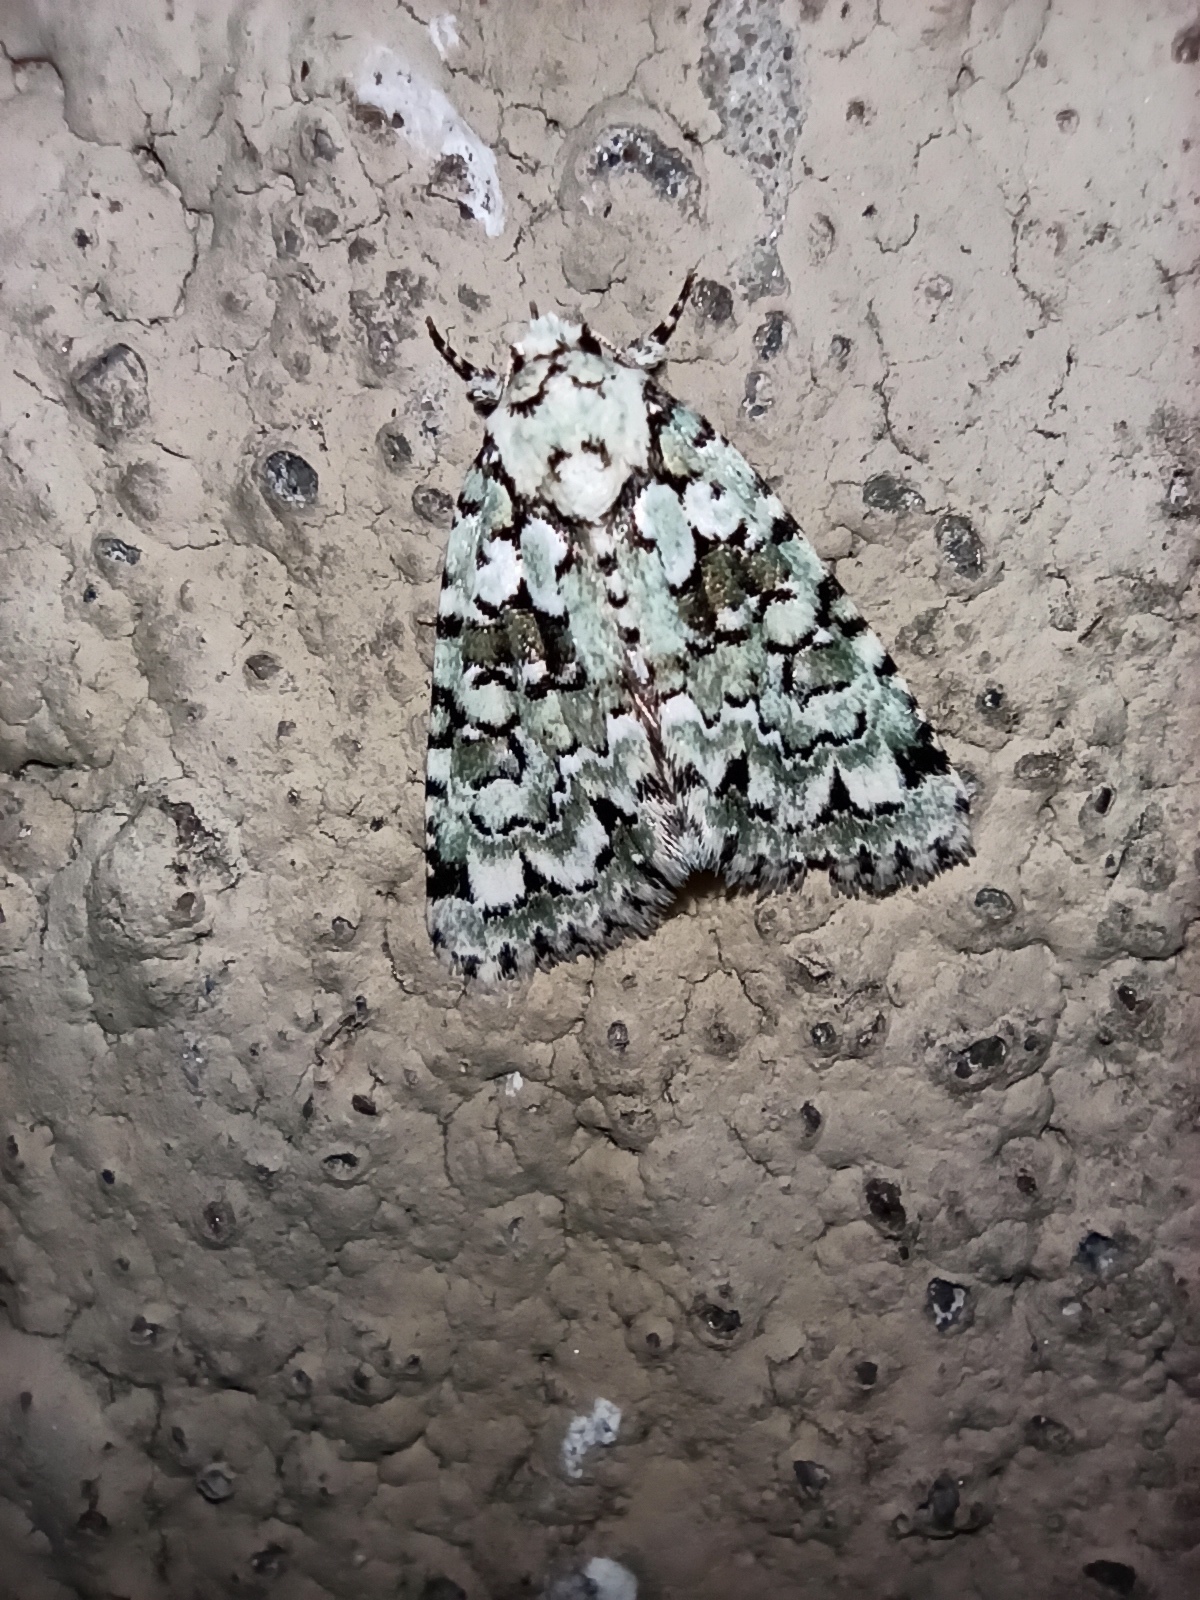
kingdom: Animalia
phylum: Arthropoda
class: Insecta
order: Lepidoptera
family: Noctuidae
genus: Nyctobrya
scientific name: Nyctobrya muralis
